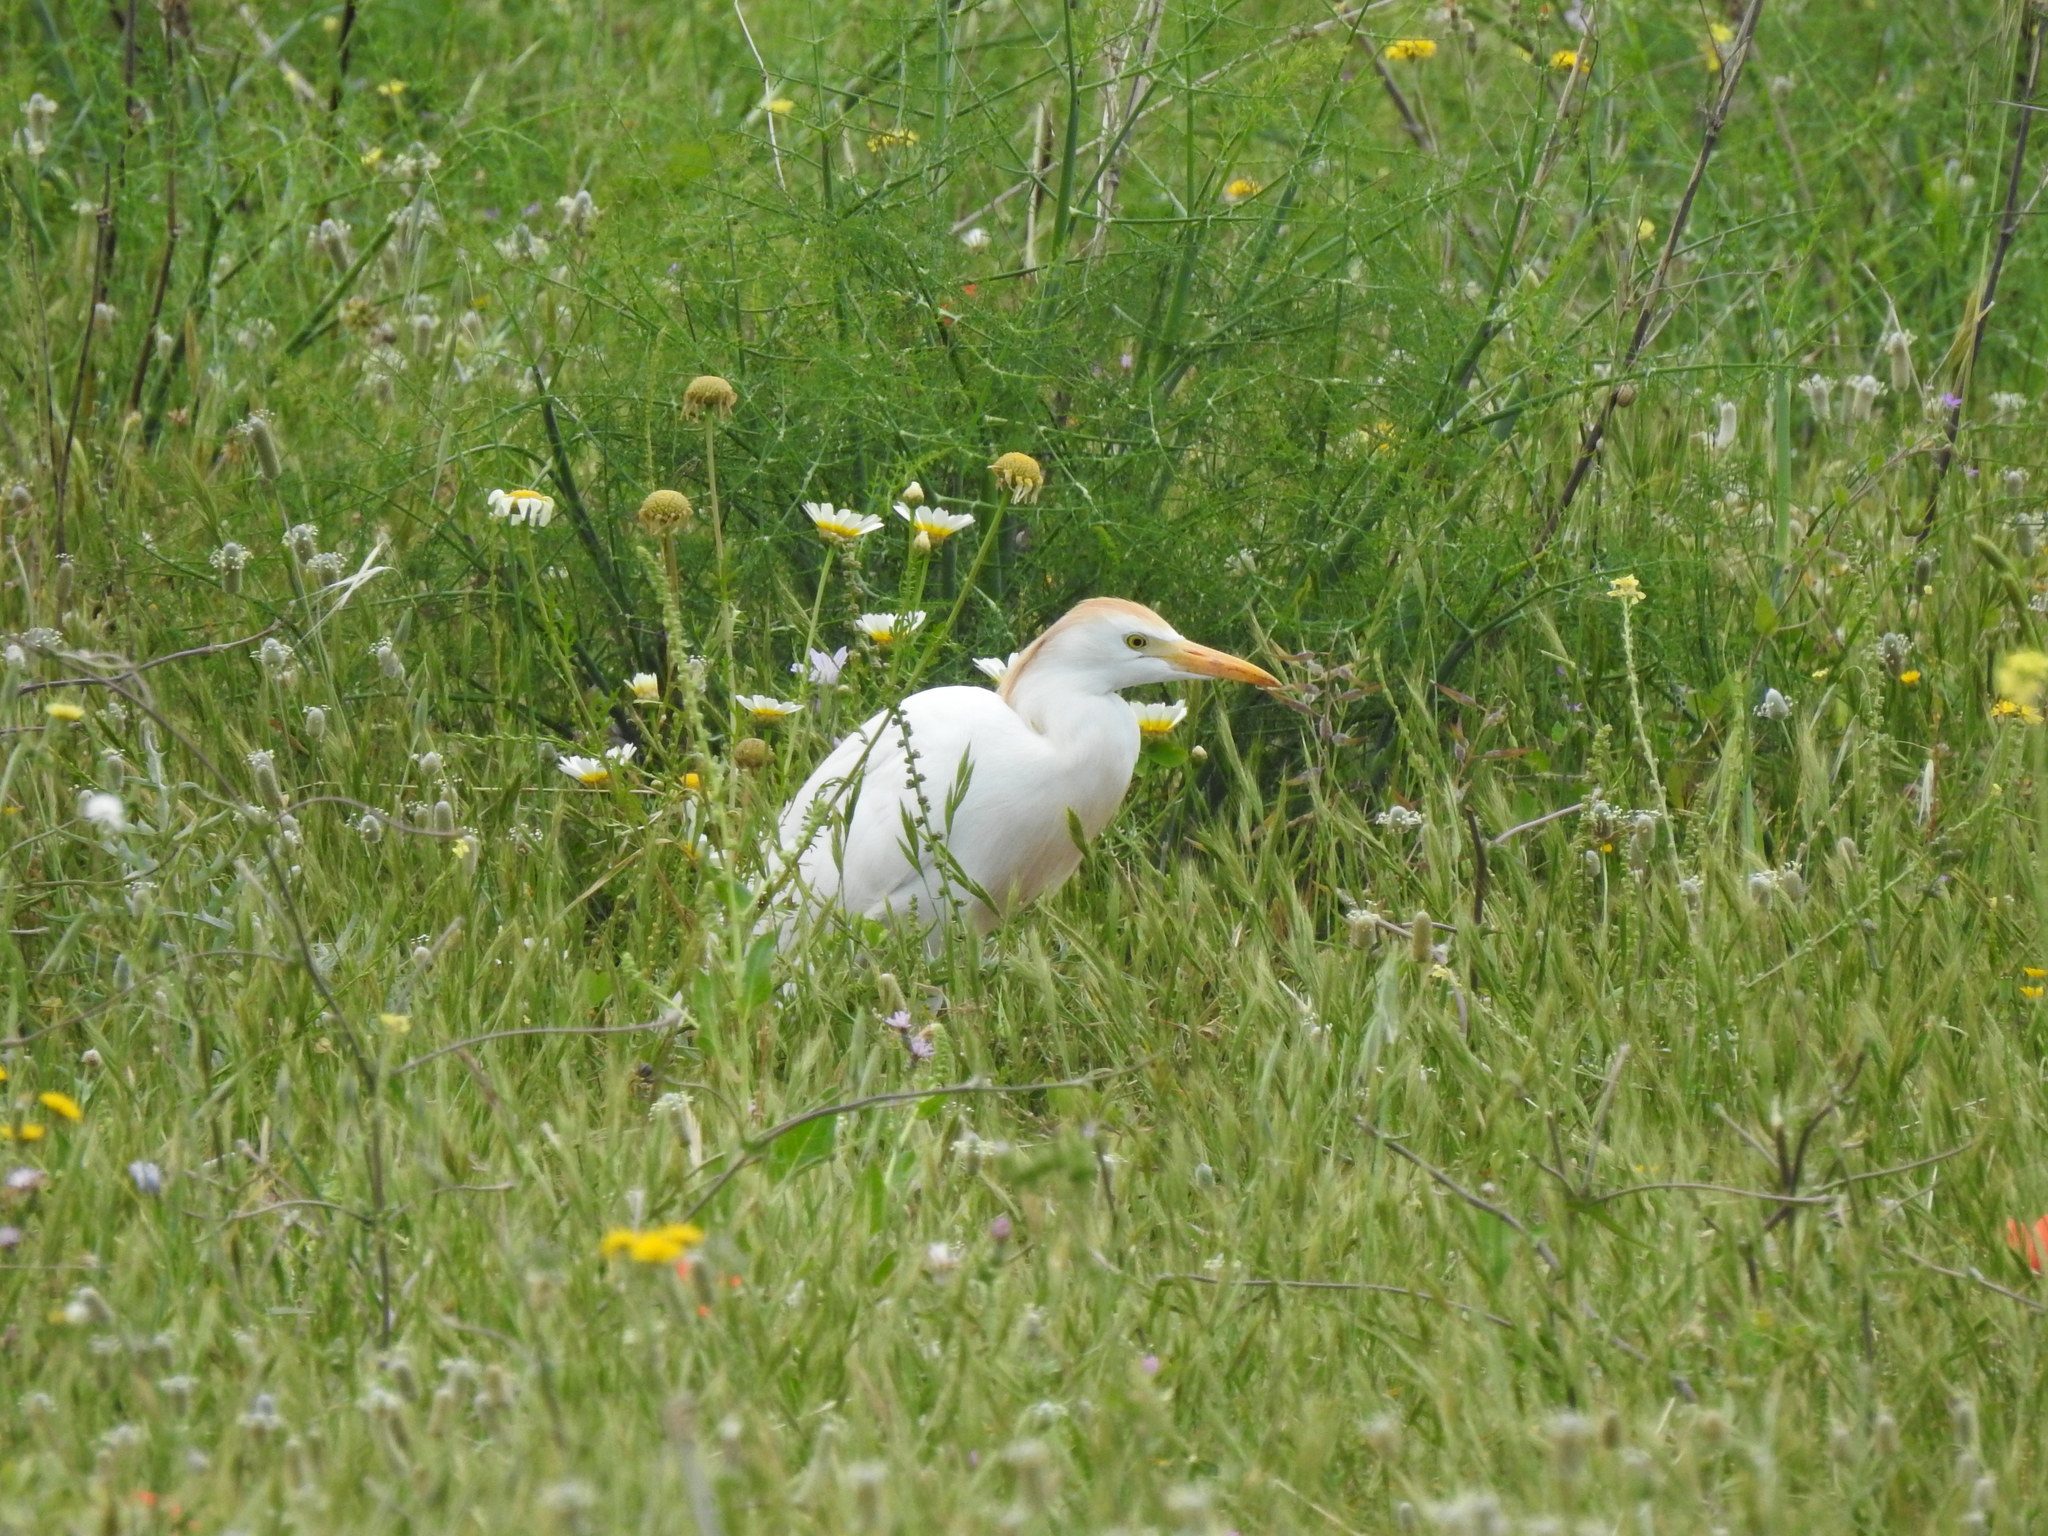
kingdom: Animalia
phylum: Chordata
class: Aves
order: Pelecaniformes
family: Ardeidae
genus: Bubulcus
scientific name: Bubulcus ibis
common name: Cattle egret
